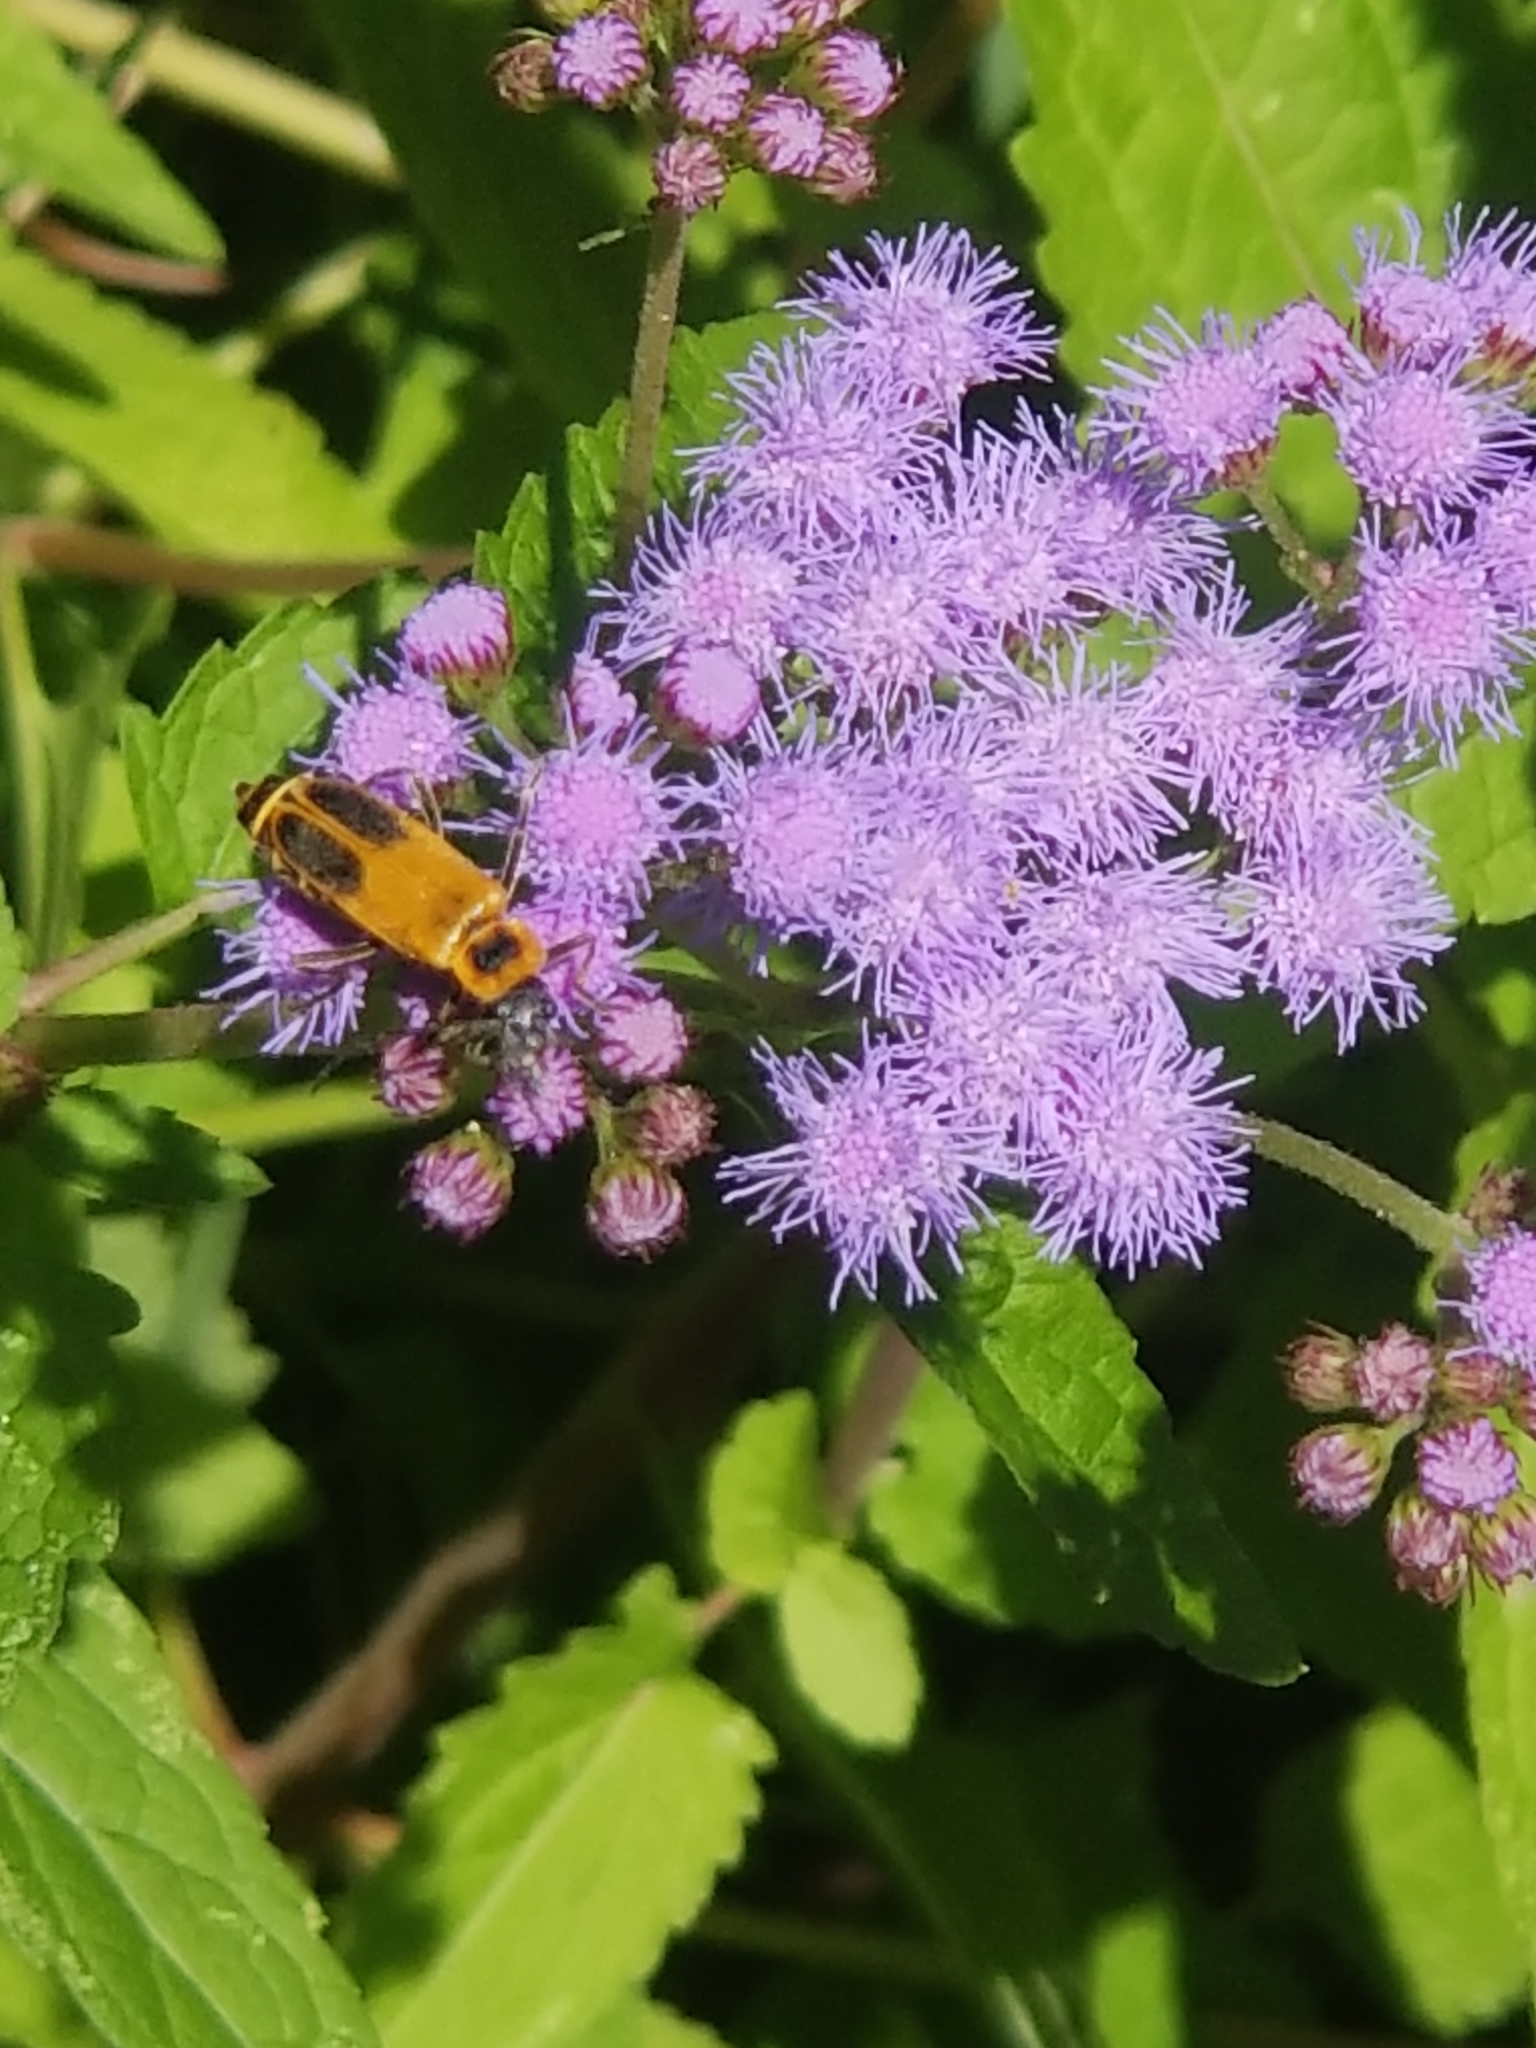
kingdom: Animalia
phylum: Arthropoda
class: Insecta
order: Coleoptera
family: Cantharidae
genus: Chauliognathus
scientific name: Chauliognathus pensylvanicus
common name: Goldenrod soldier beetle
